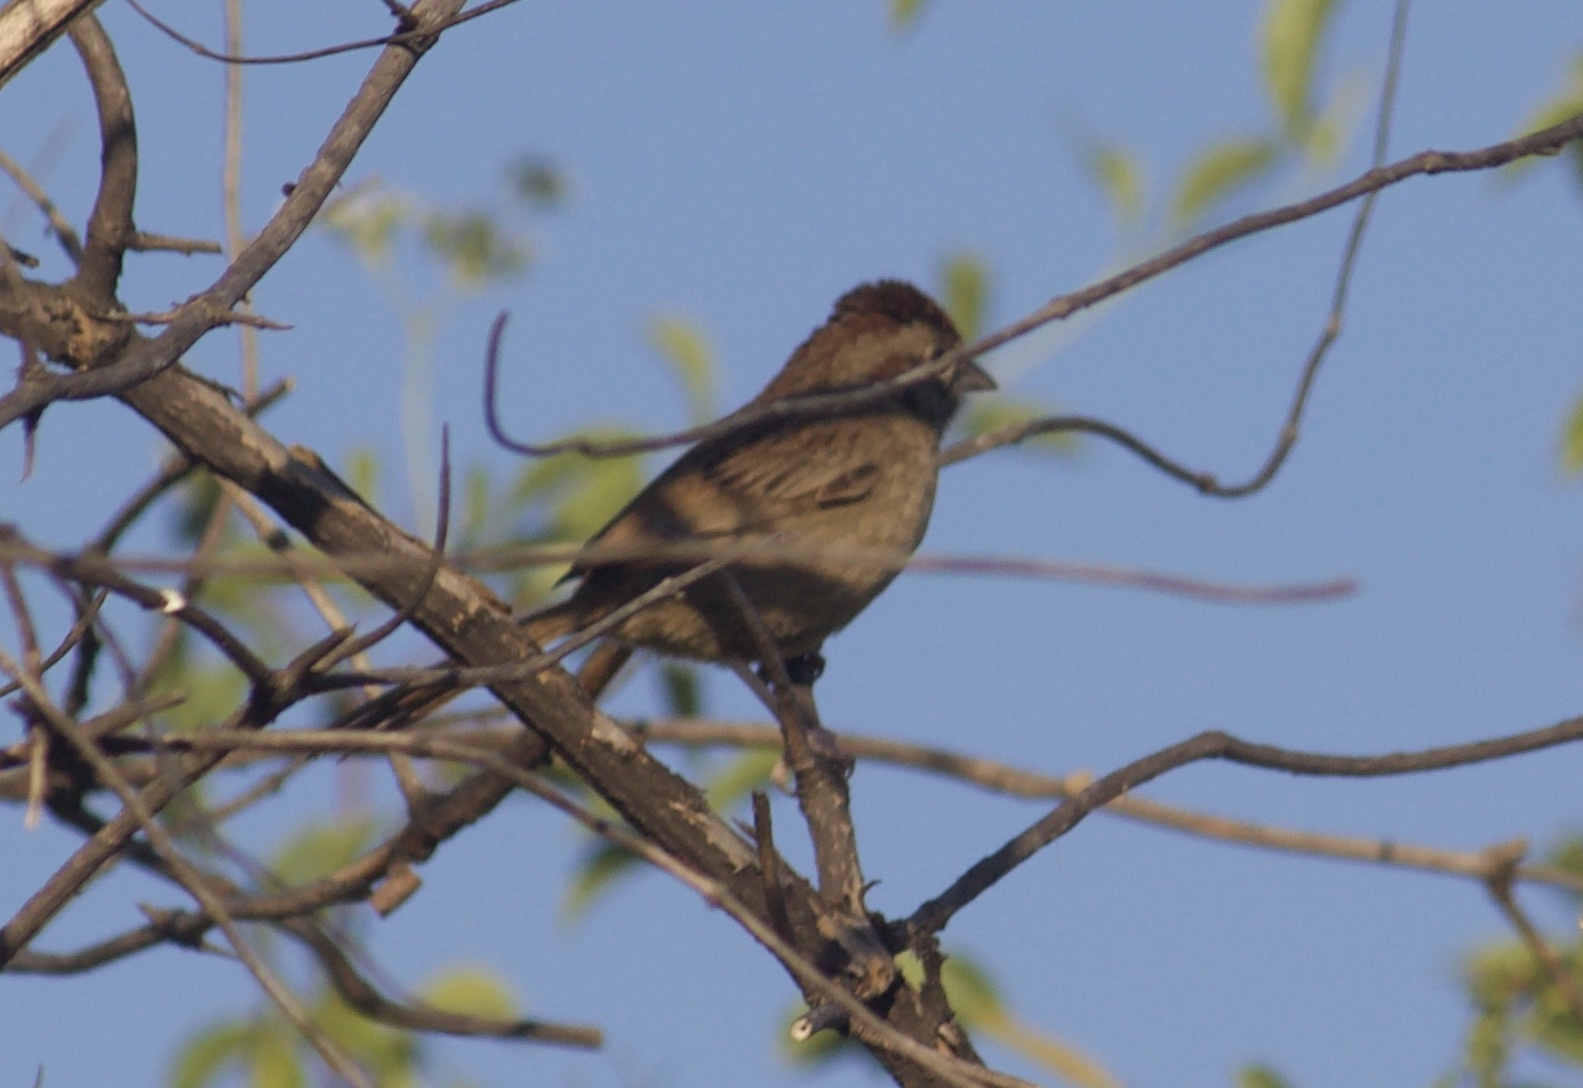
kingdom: Animalia
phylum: Chordata
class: Aves
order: Passeriformes
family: Passerellidae
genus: Aimophila
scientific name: Aimophila ruficeps
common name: Rufous-crowned sparrow
